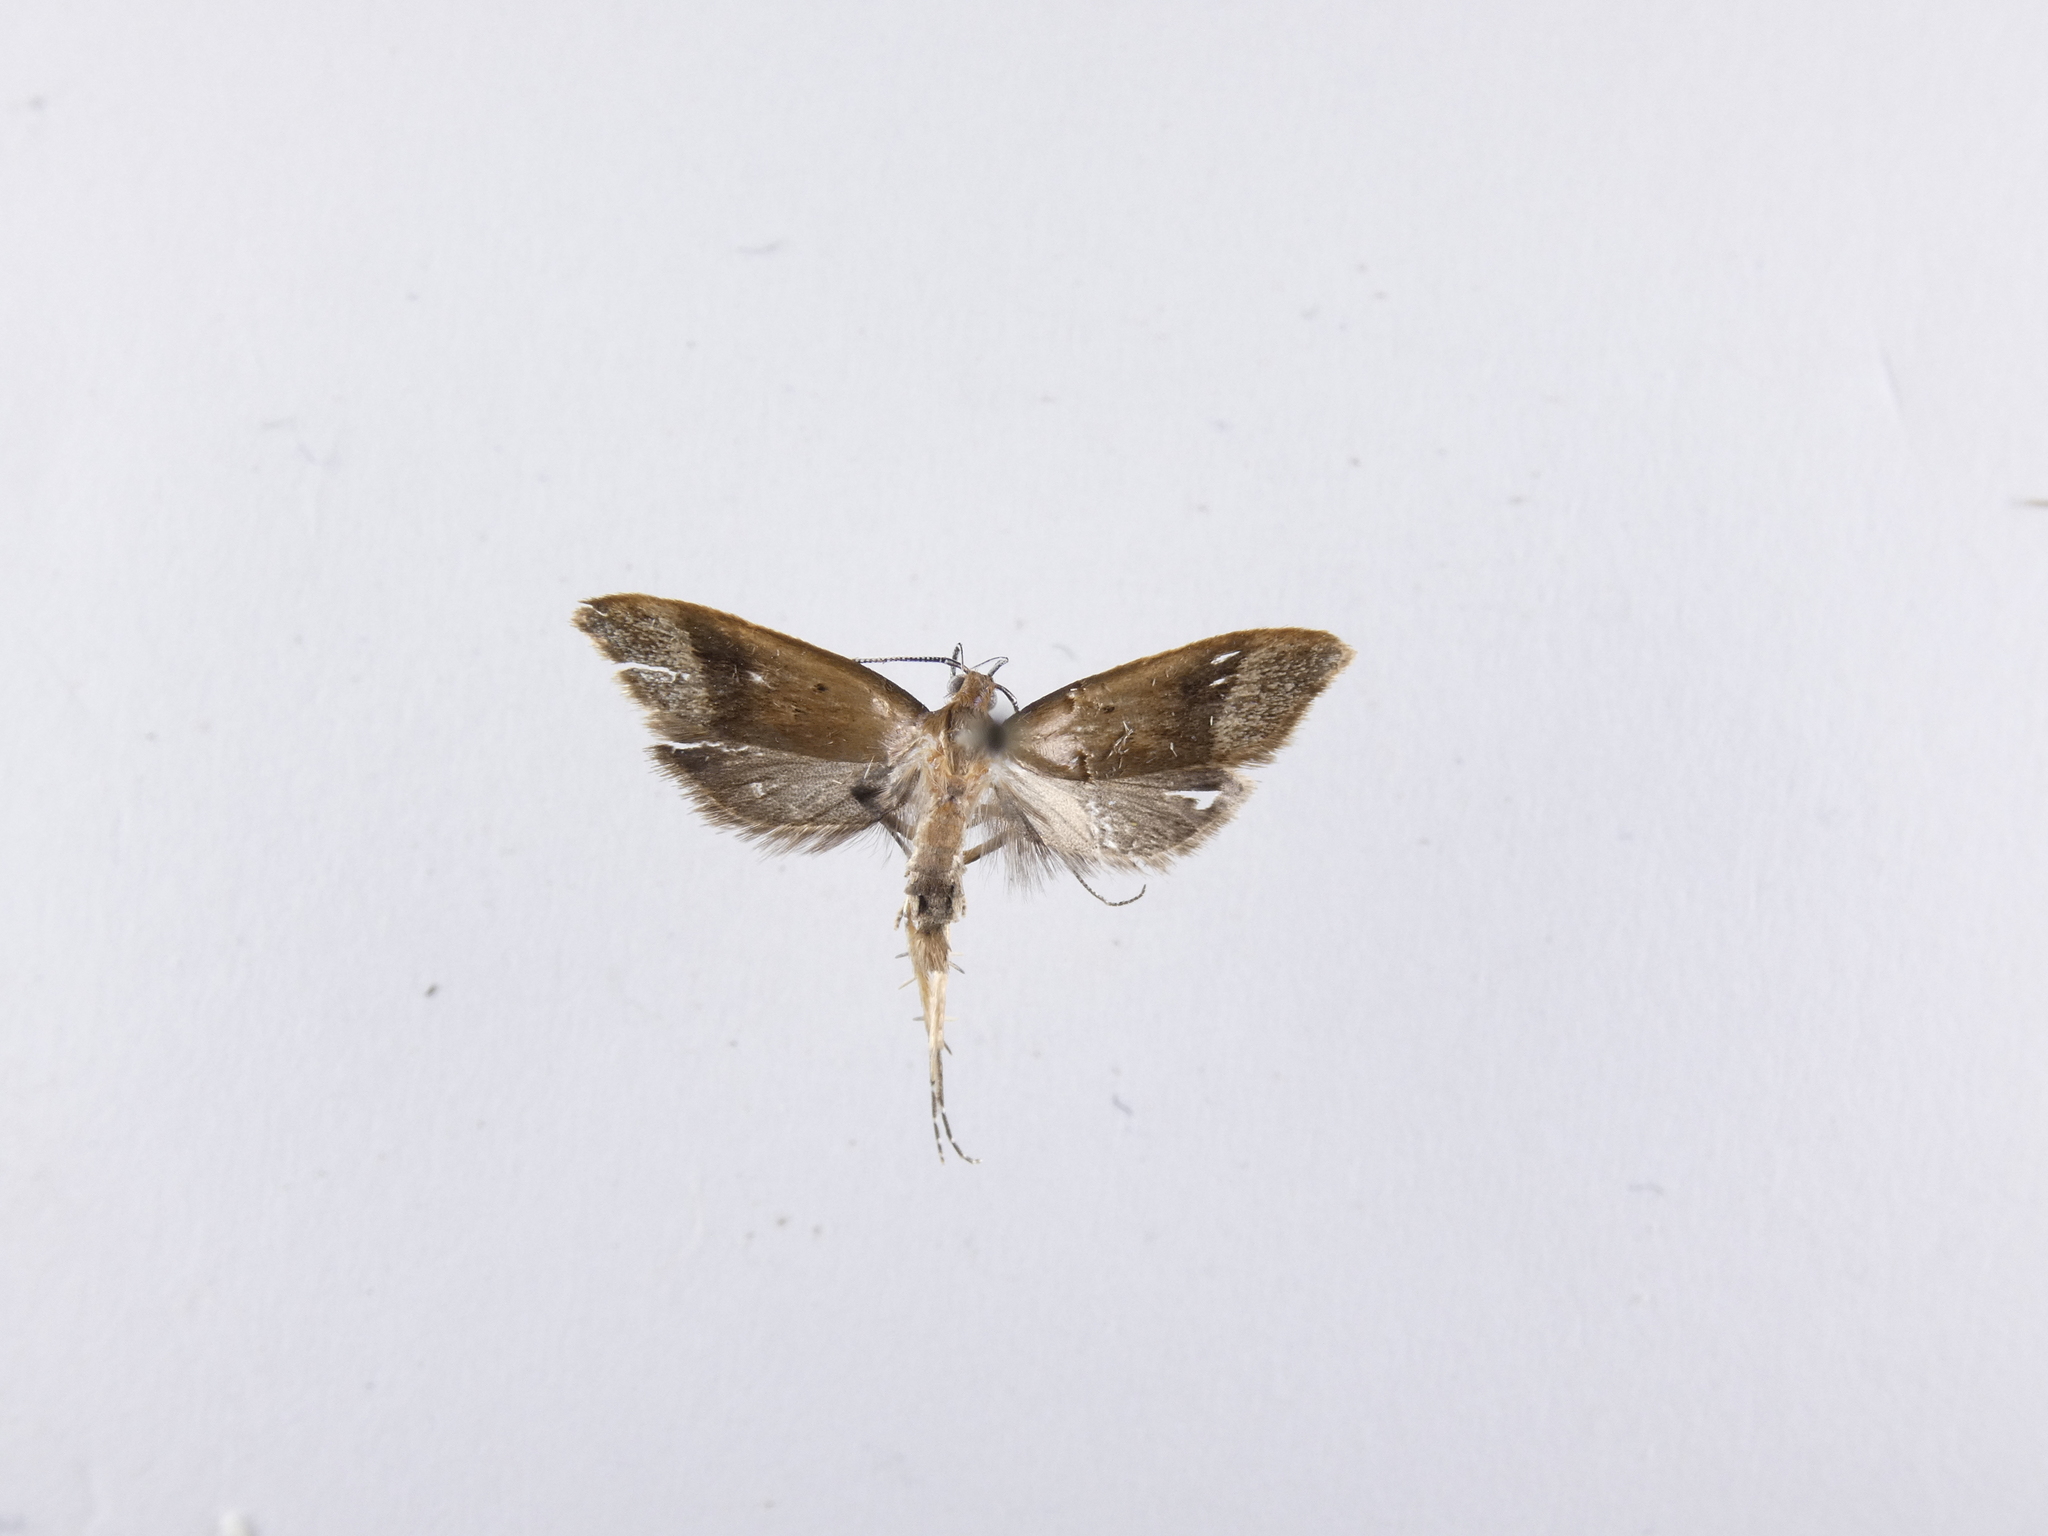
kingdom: Animalia
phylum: Arthropoda
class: Insecta
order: Lepidoptera
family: Oecophoridae
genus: Gymnobathra
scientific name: Gymnobathra hyetodes
